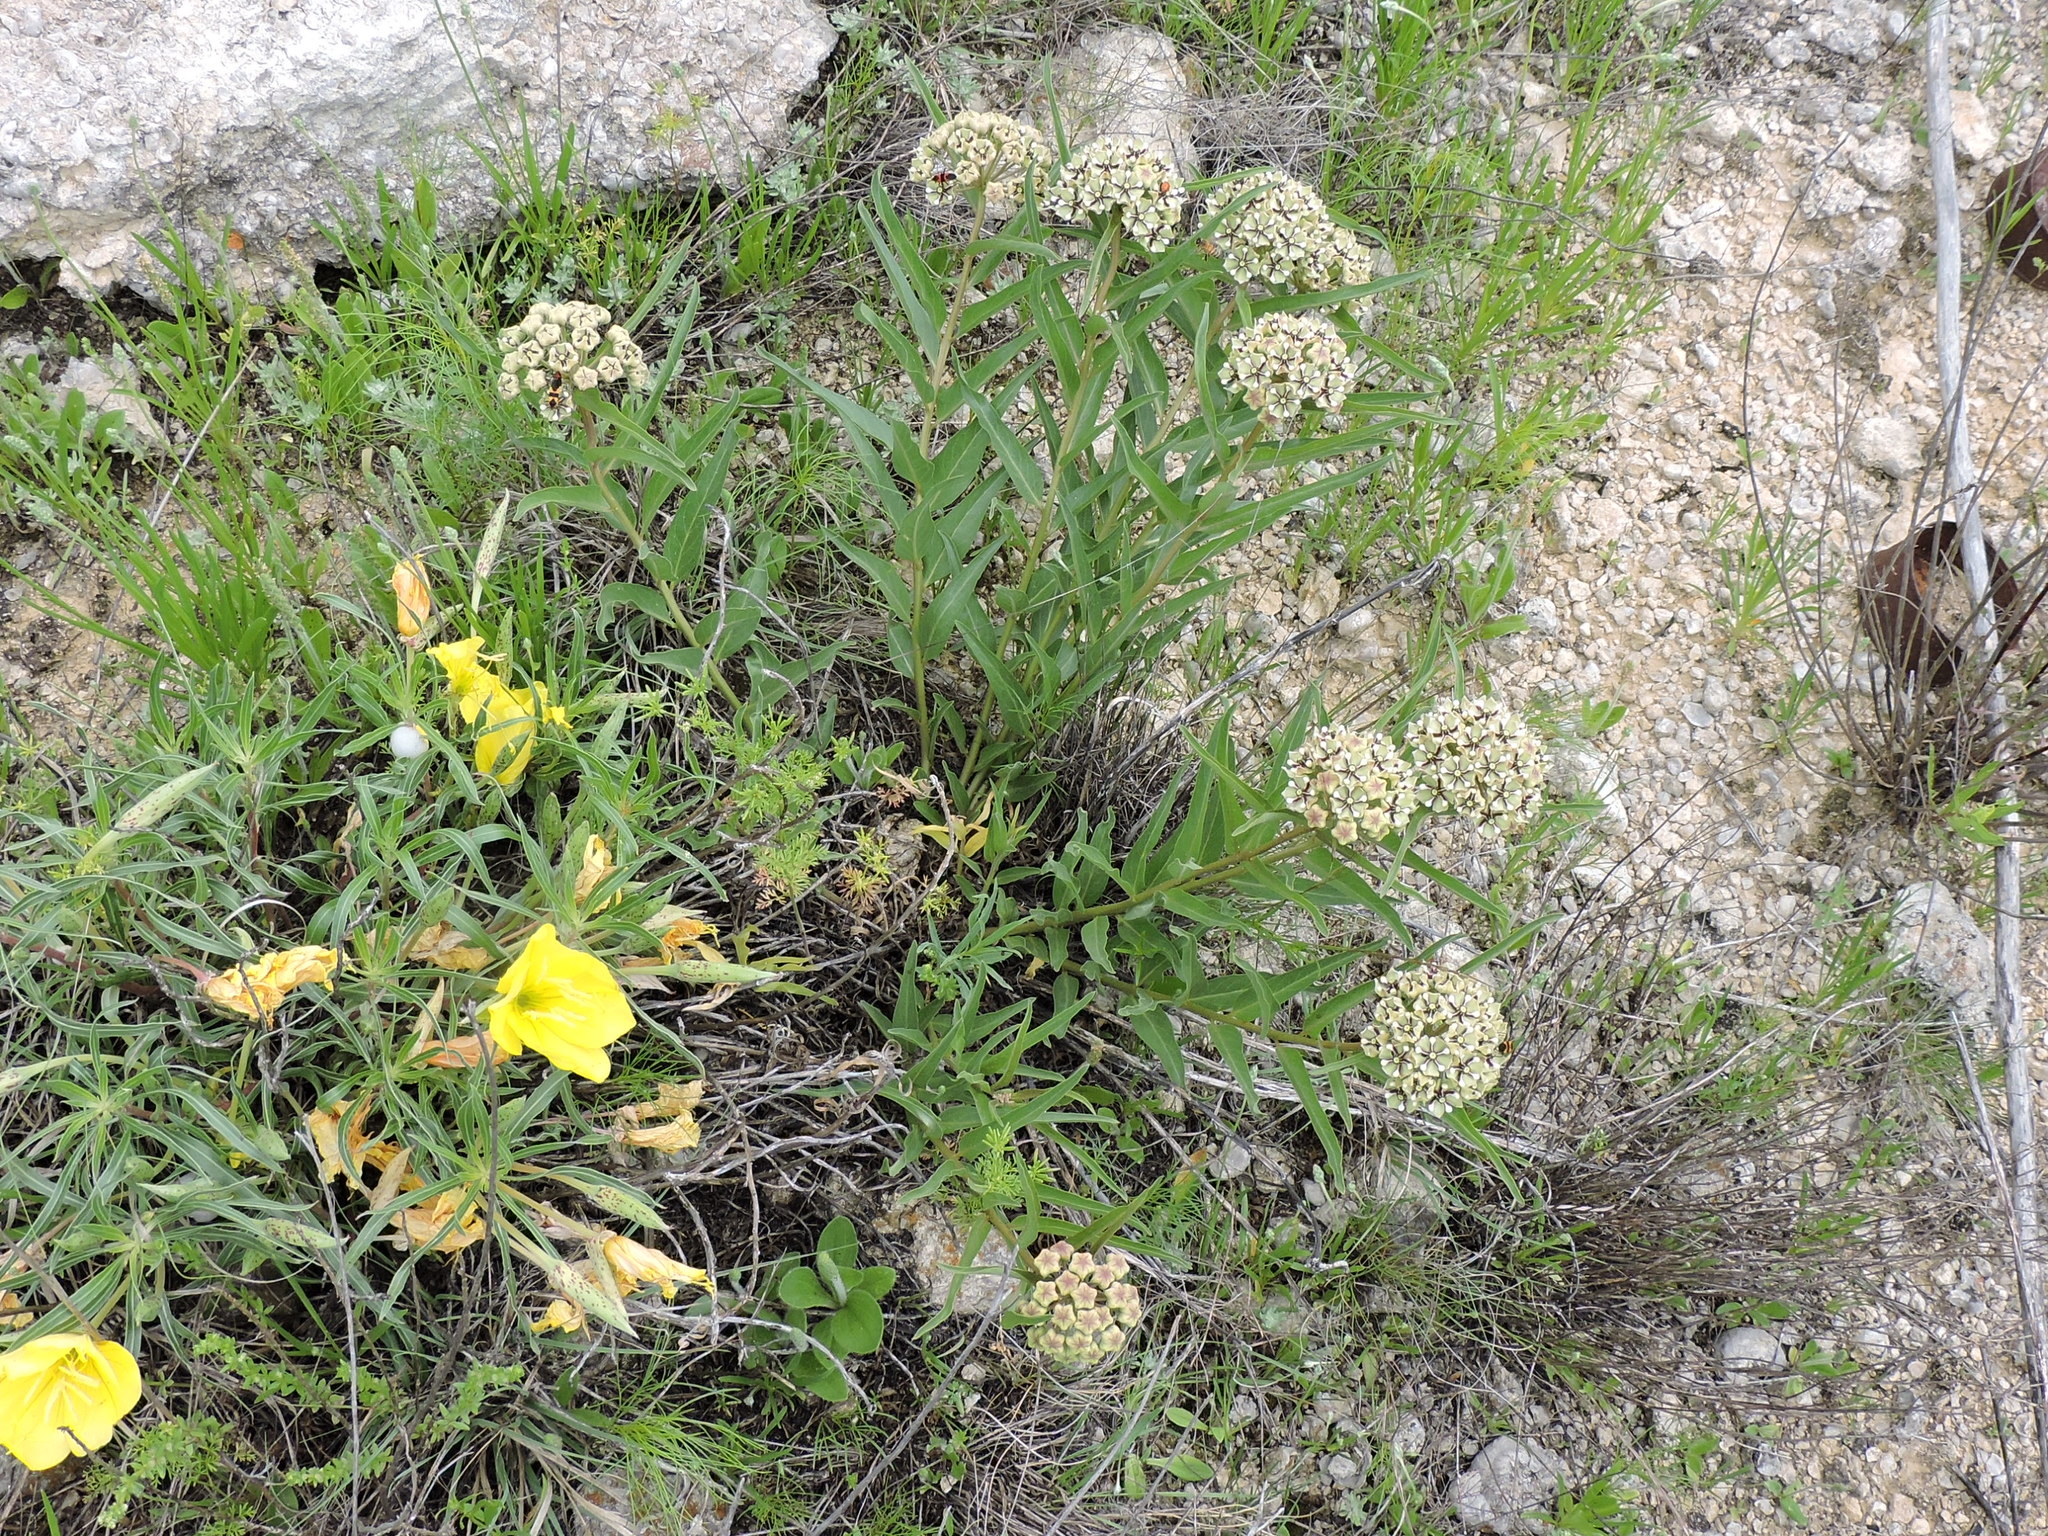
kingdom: Plantae
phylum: Tracheophyta
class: Magnoliopsida
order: Gentianales
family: Apocynaceae
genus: Asclepias
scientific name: Asclepias asperula
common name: Antelope horns
